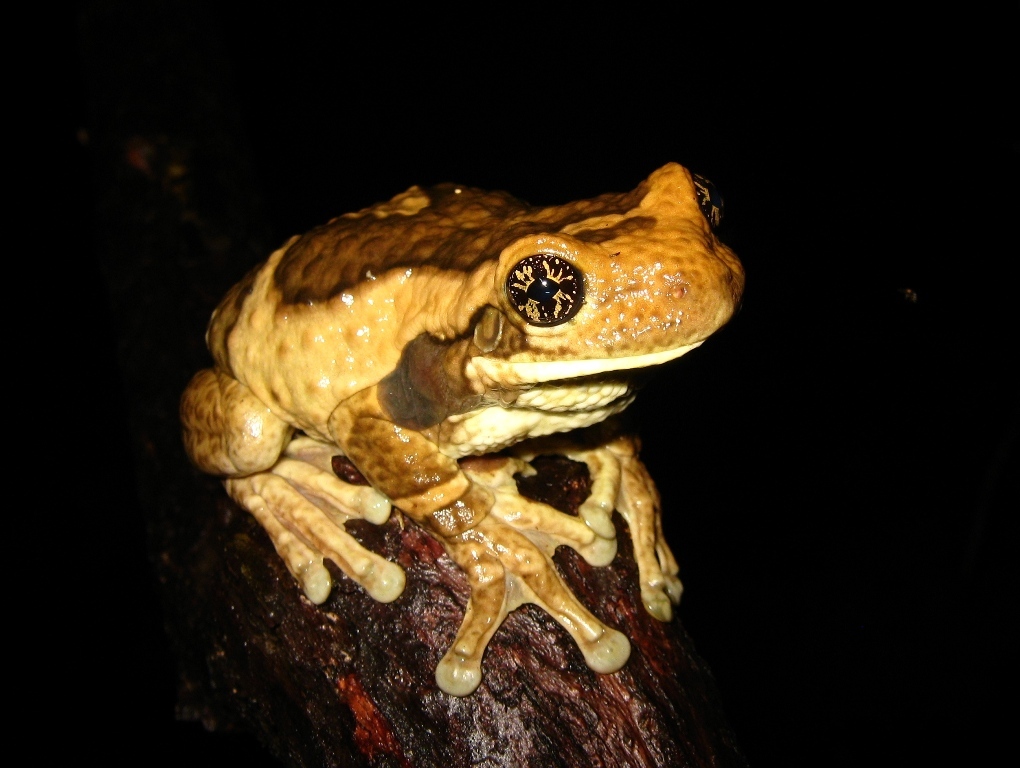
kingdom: Animalia
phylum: Chordata
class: Amphibia
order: Anura
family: Hylidae
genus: Trachycephalus
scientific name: Trachycephalus vermiculatus
